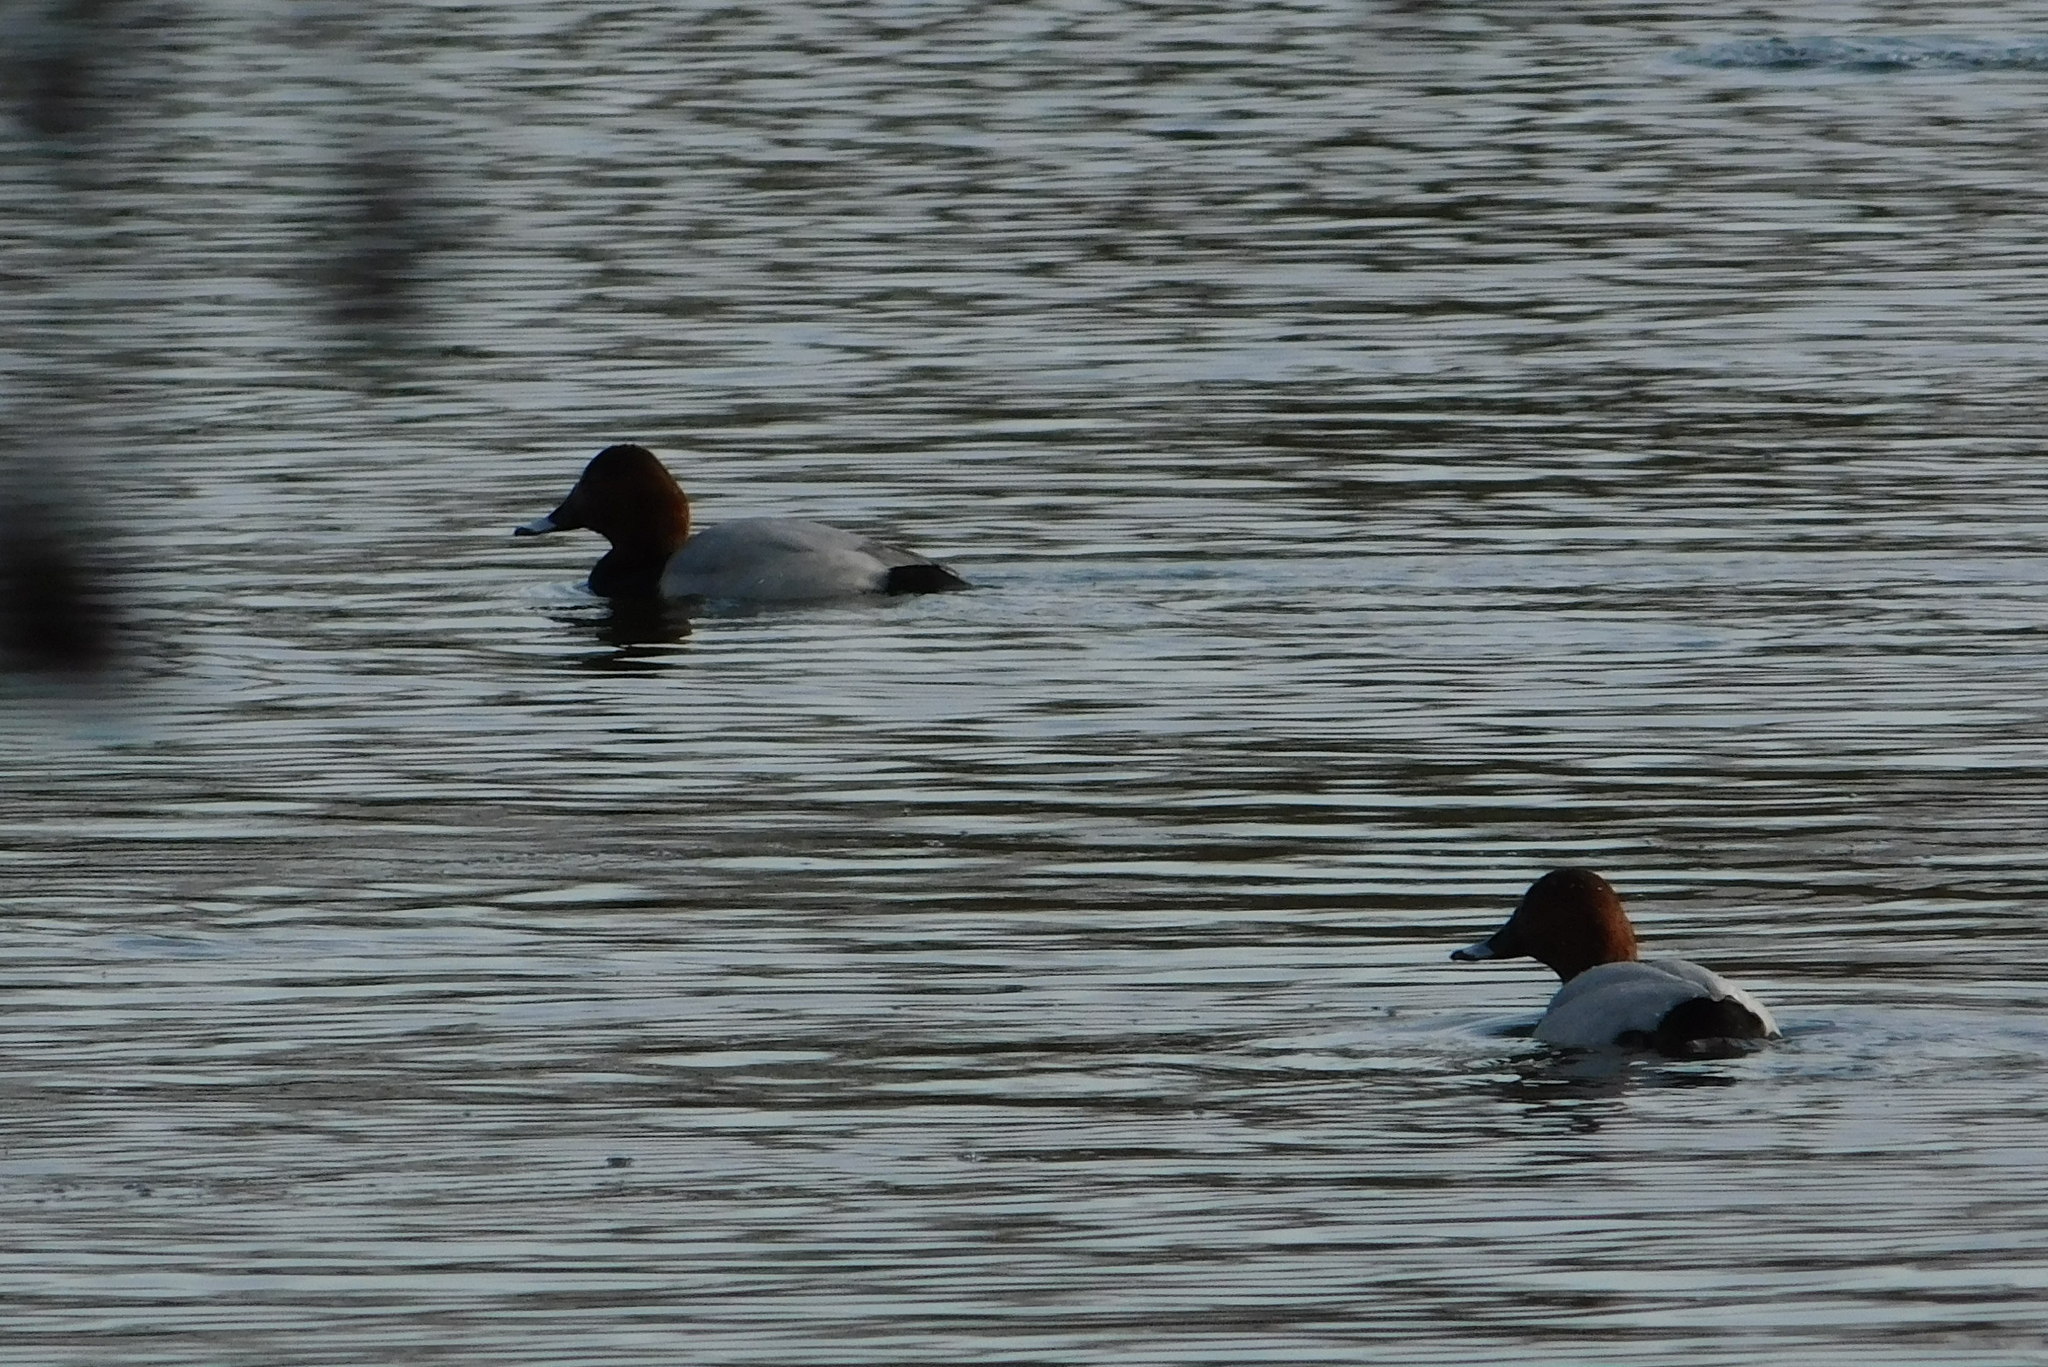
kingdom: Animalia
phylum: Chordata
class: Aves
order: Anseriformes
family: Anatidae
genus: Aythya
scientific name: Aythya ferina
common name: Common pochard
